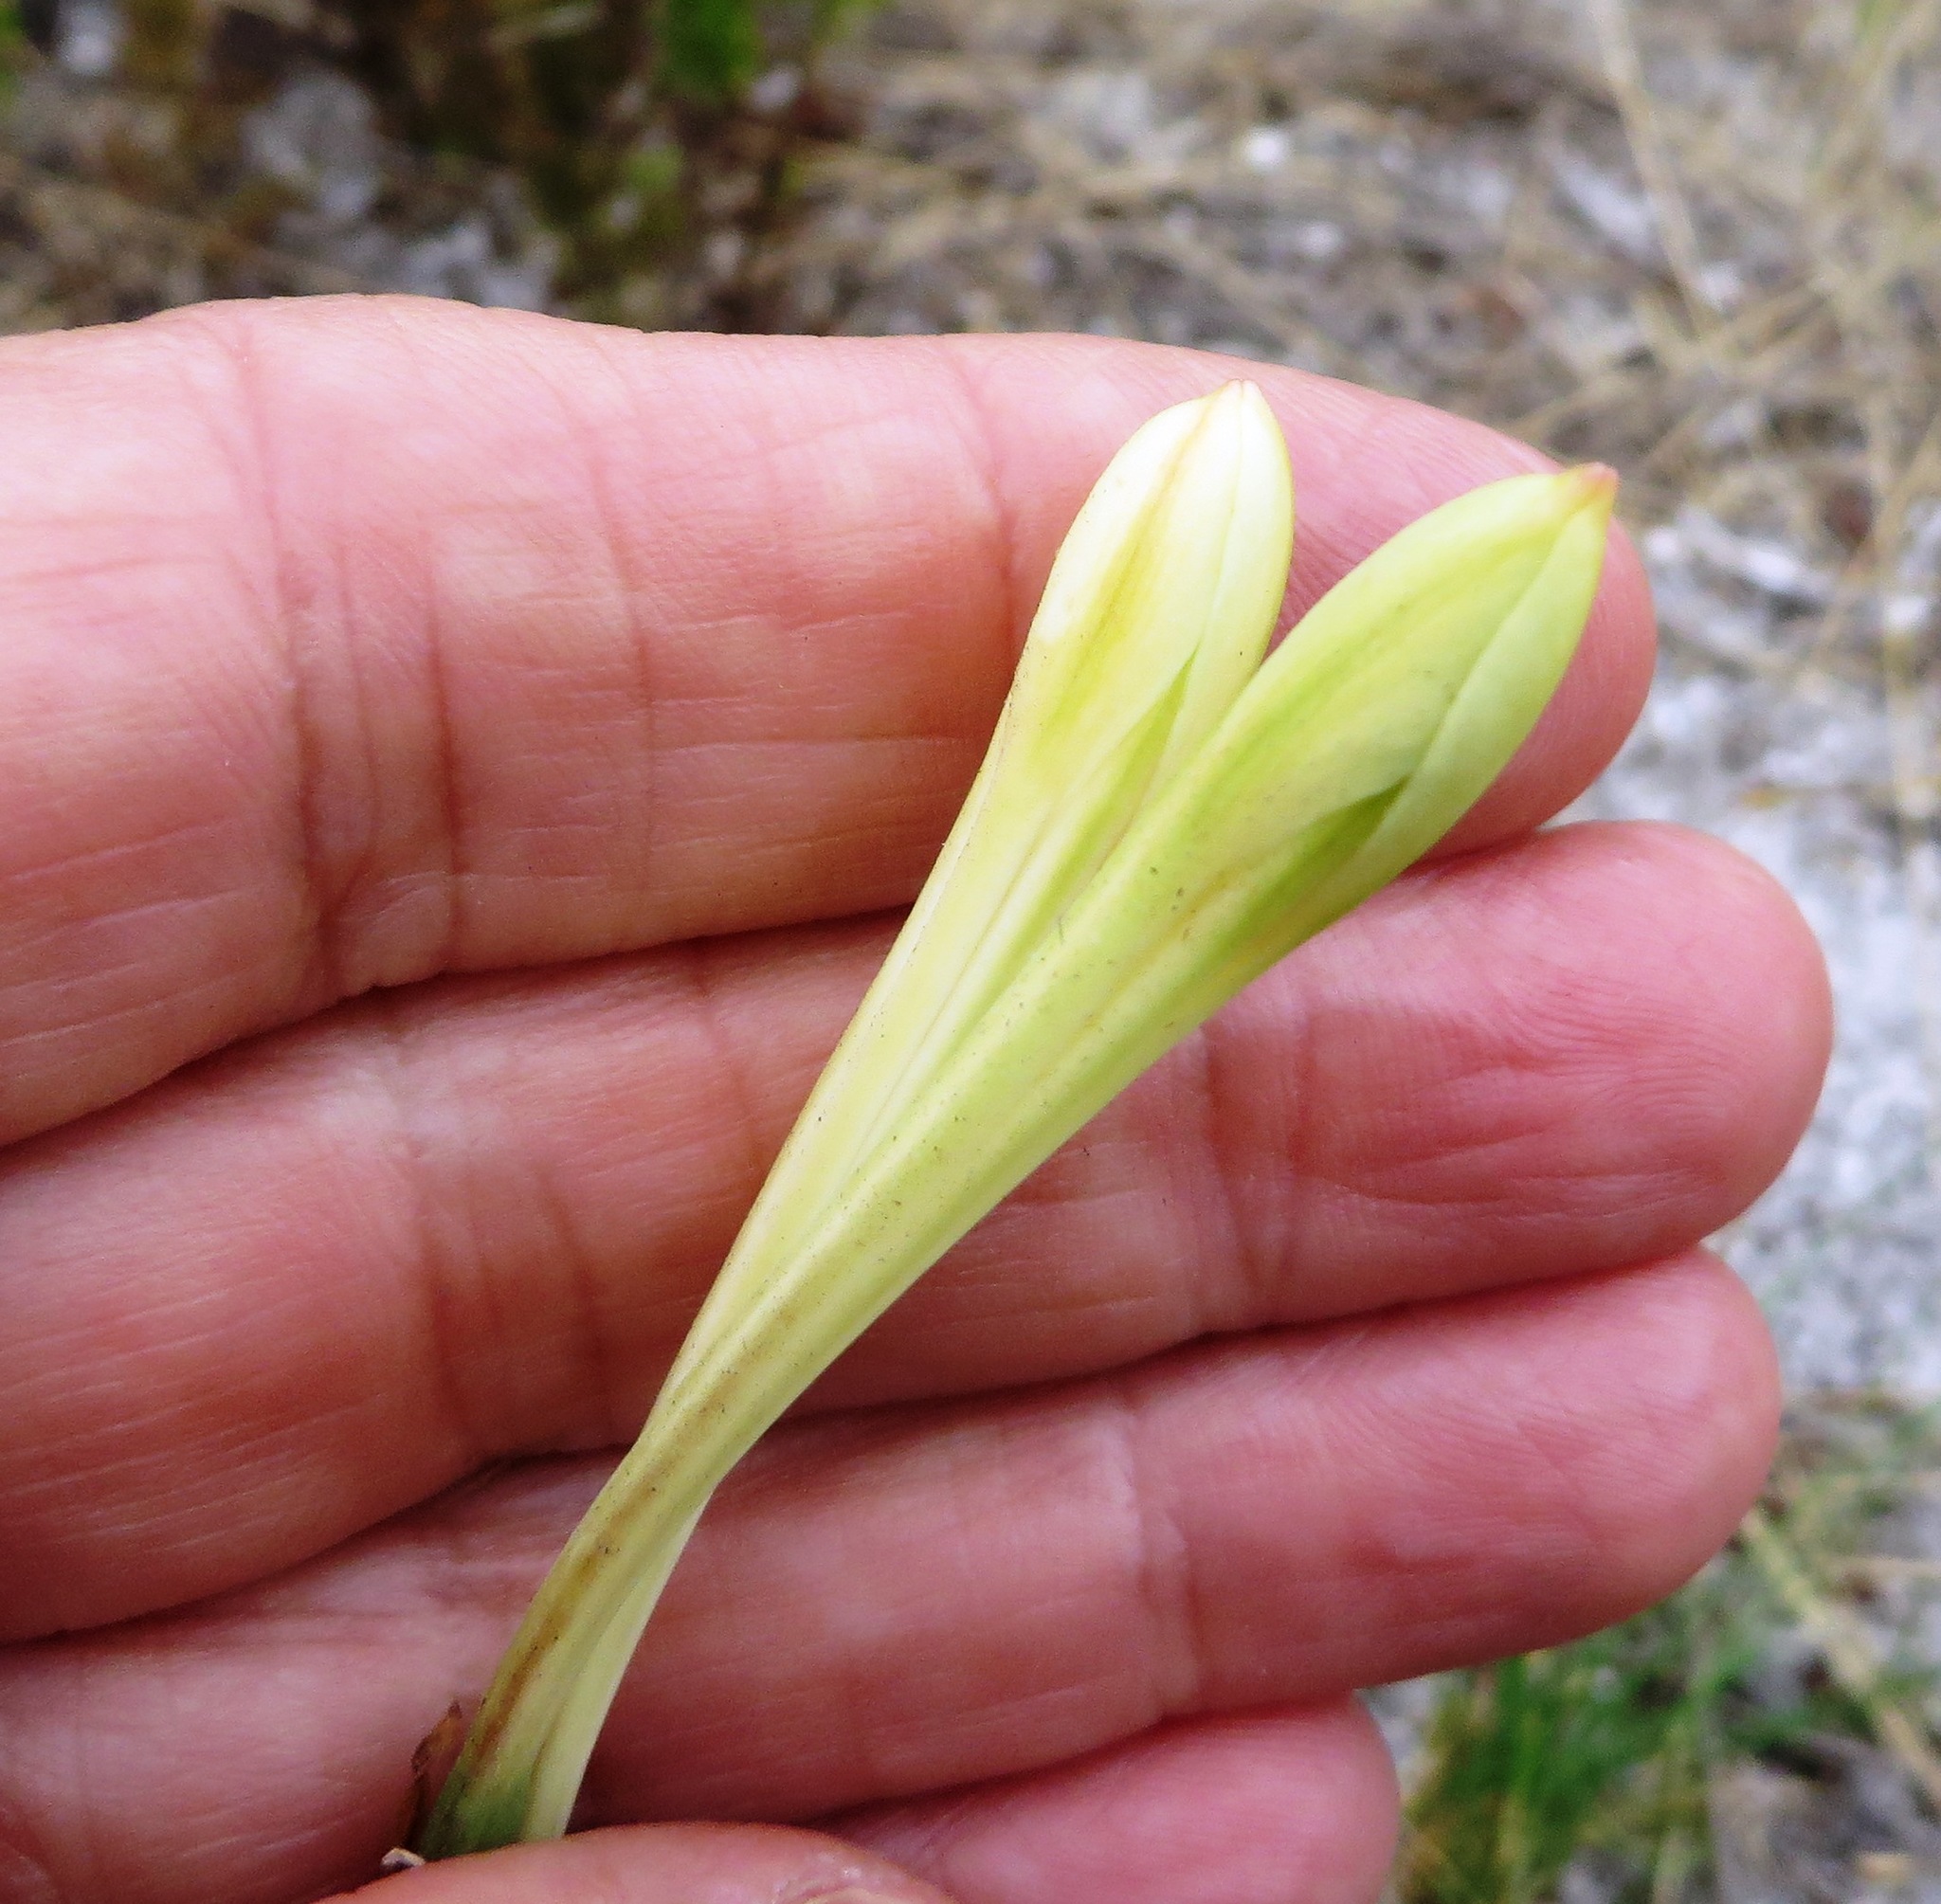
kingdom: Plantae
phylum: Tracheophyta
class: Liliopsida
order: Asparagales
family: Amaryllidaceae
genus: Cyrtanthus
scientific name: Cyrtanthus leucanthus
